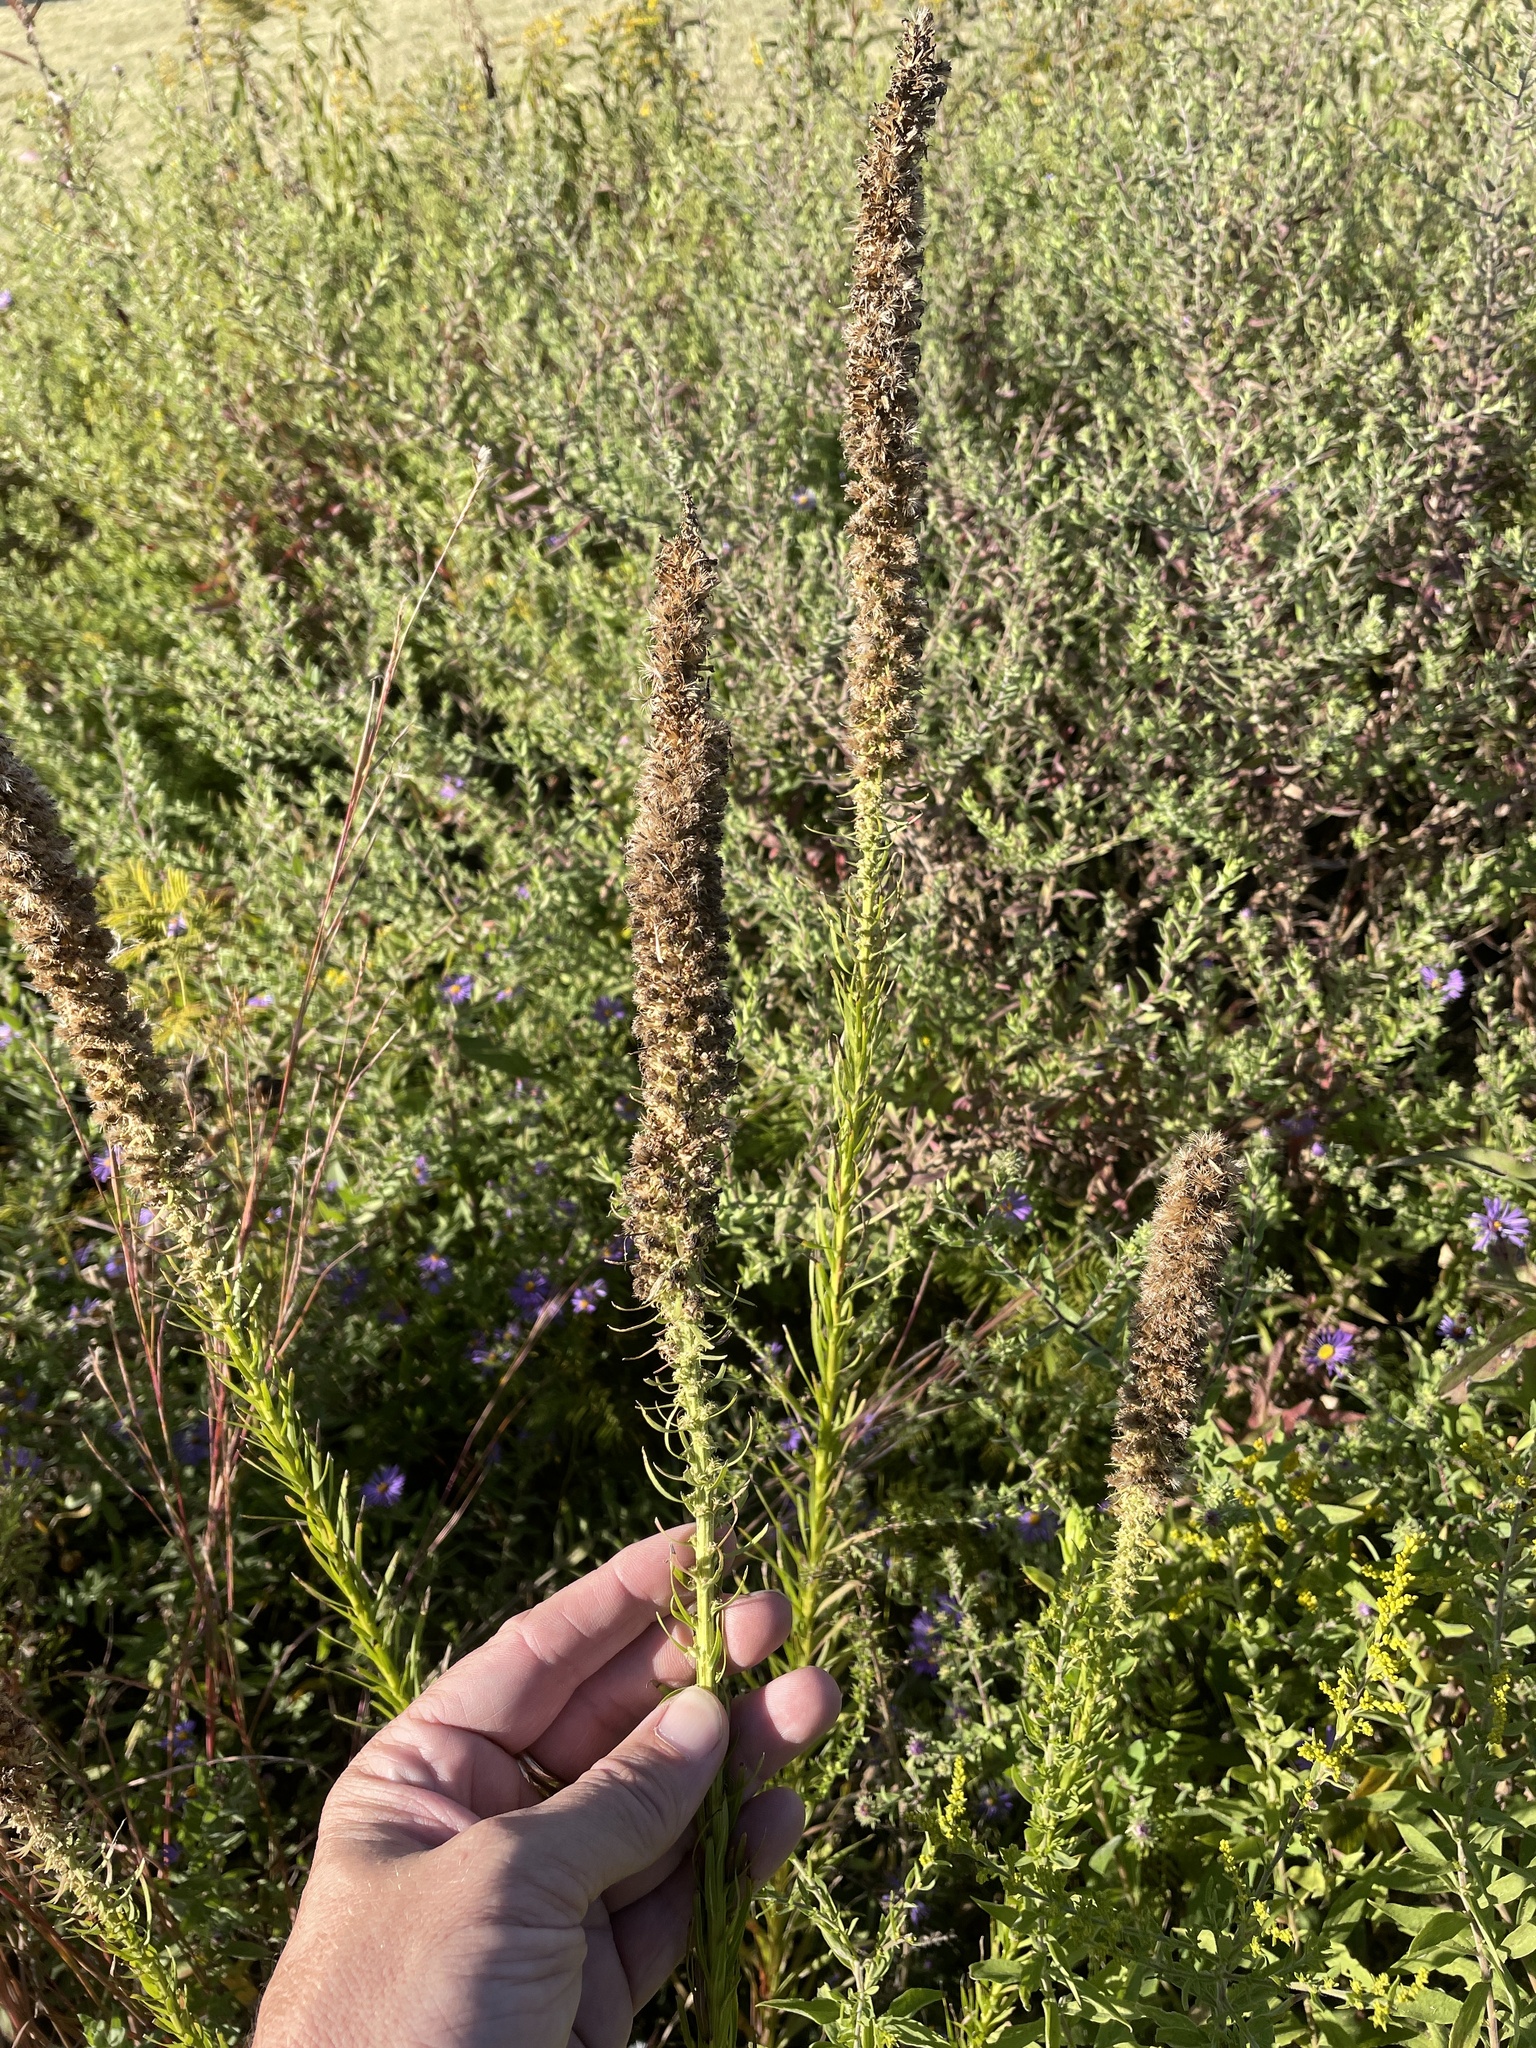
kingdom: Plantae
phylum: Tracheophyta
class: Magnoliopsida
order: Asterales
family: Asteraceae
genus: Liatris
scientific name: Liatris pycnostachya
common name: Cattail gayfeather
